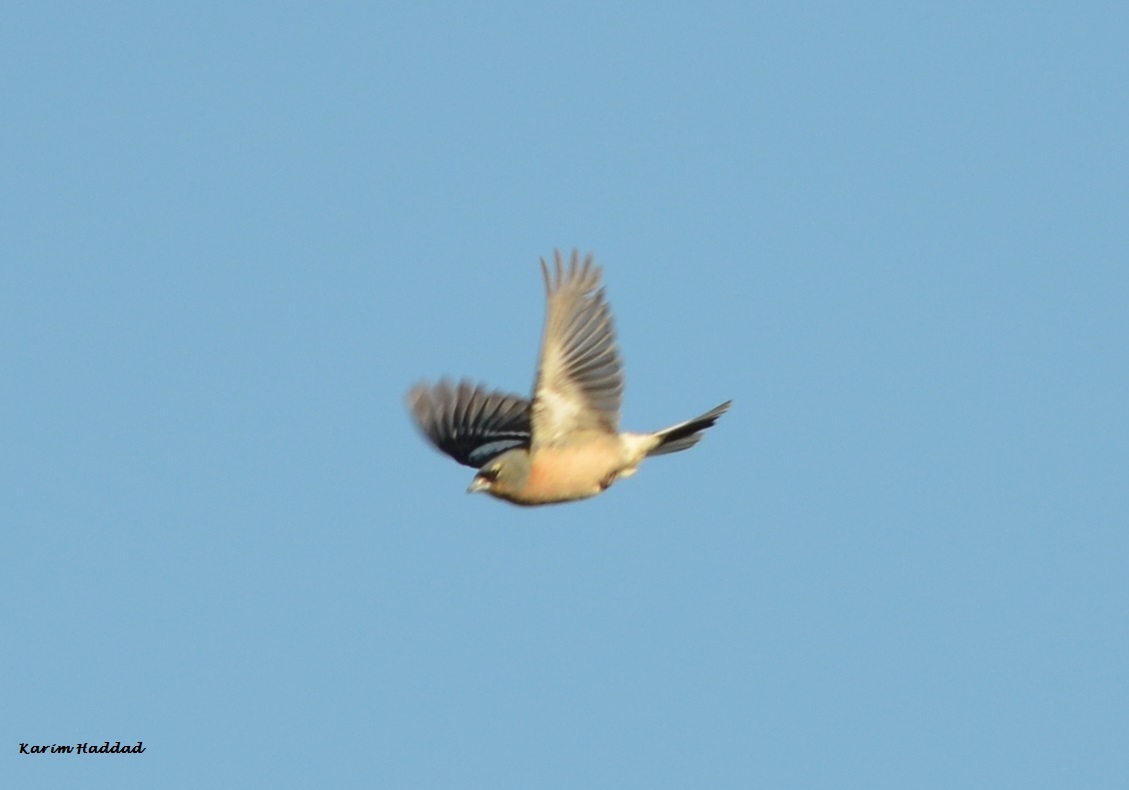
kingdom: Animalia
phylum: Chordata
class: Aves
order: Passeriformes
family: Fringillidae
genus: Fringilla
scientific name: Fringilla spodiogenys
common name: African chaffinch
